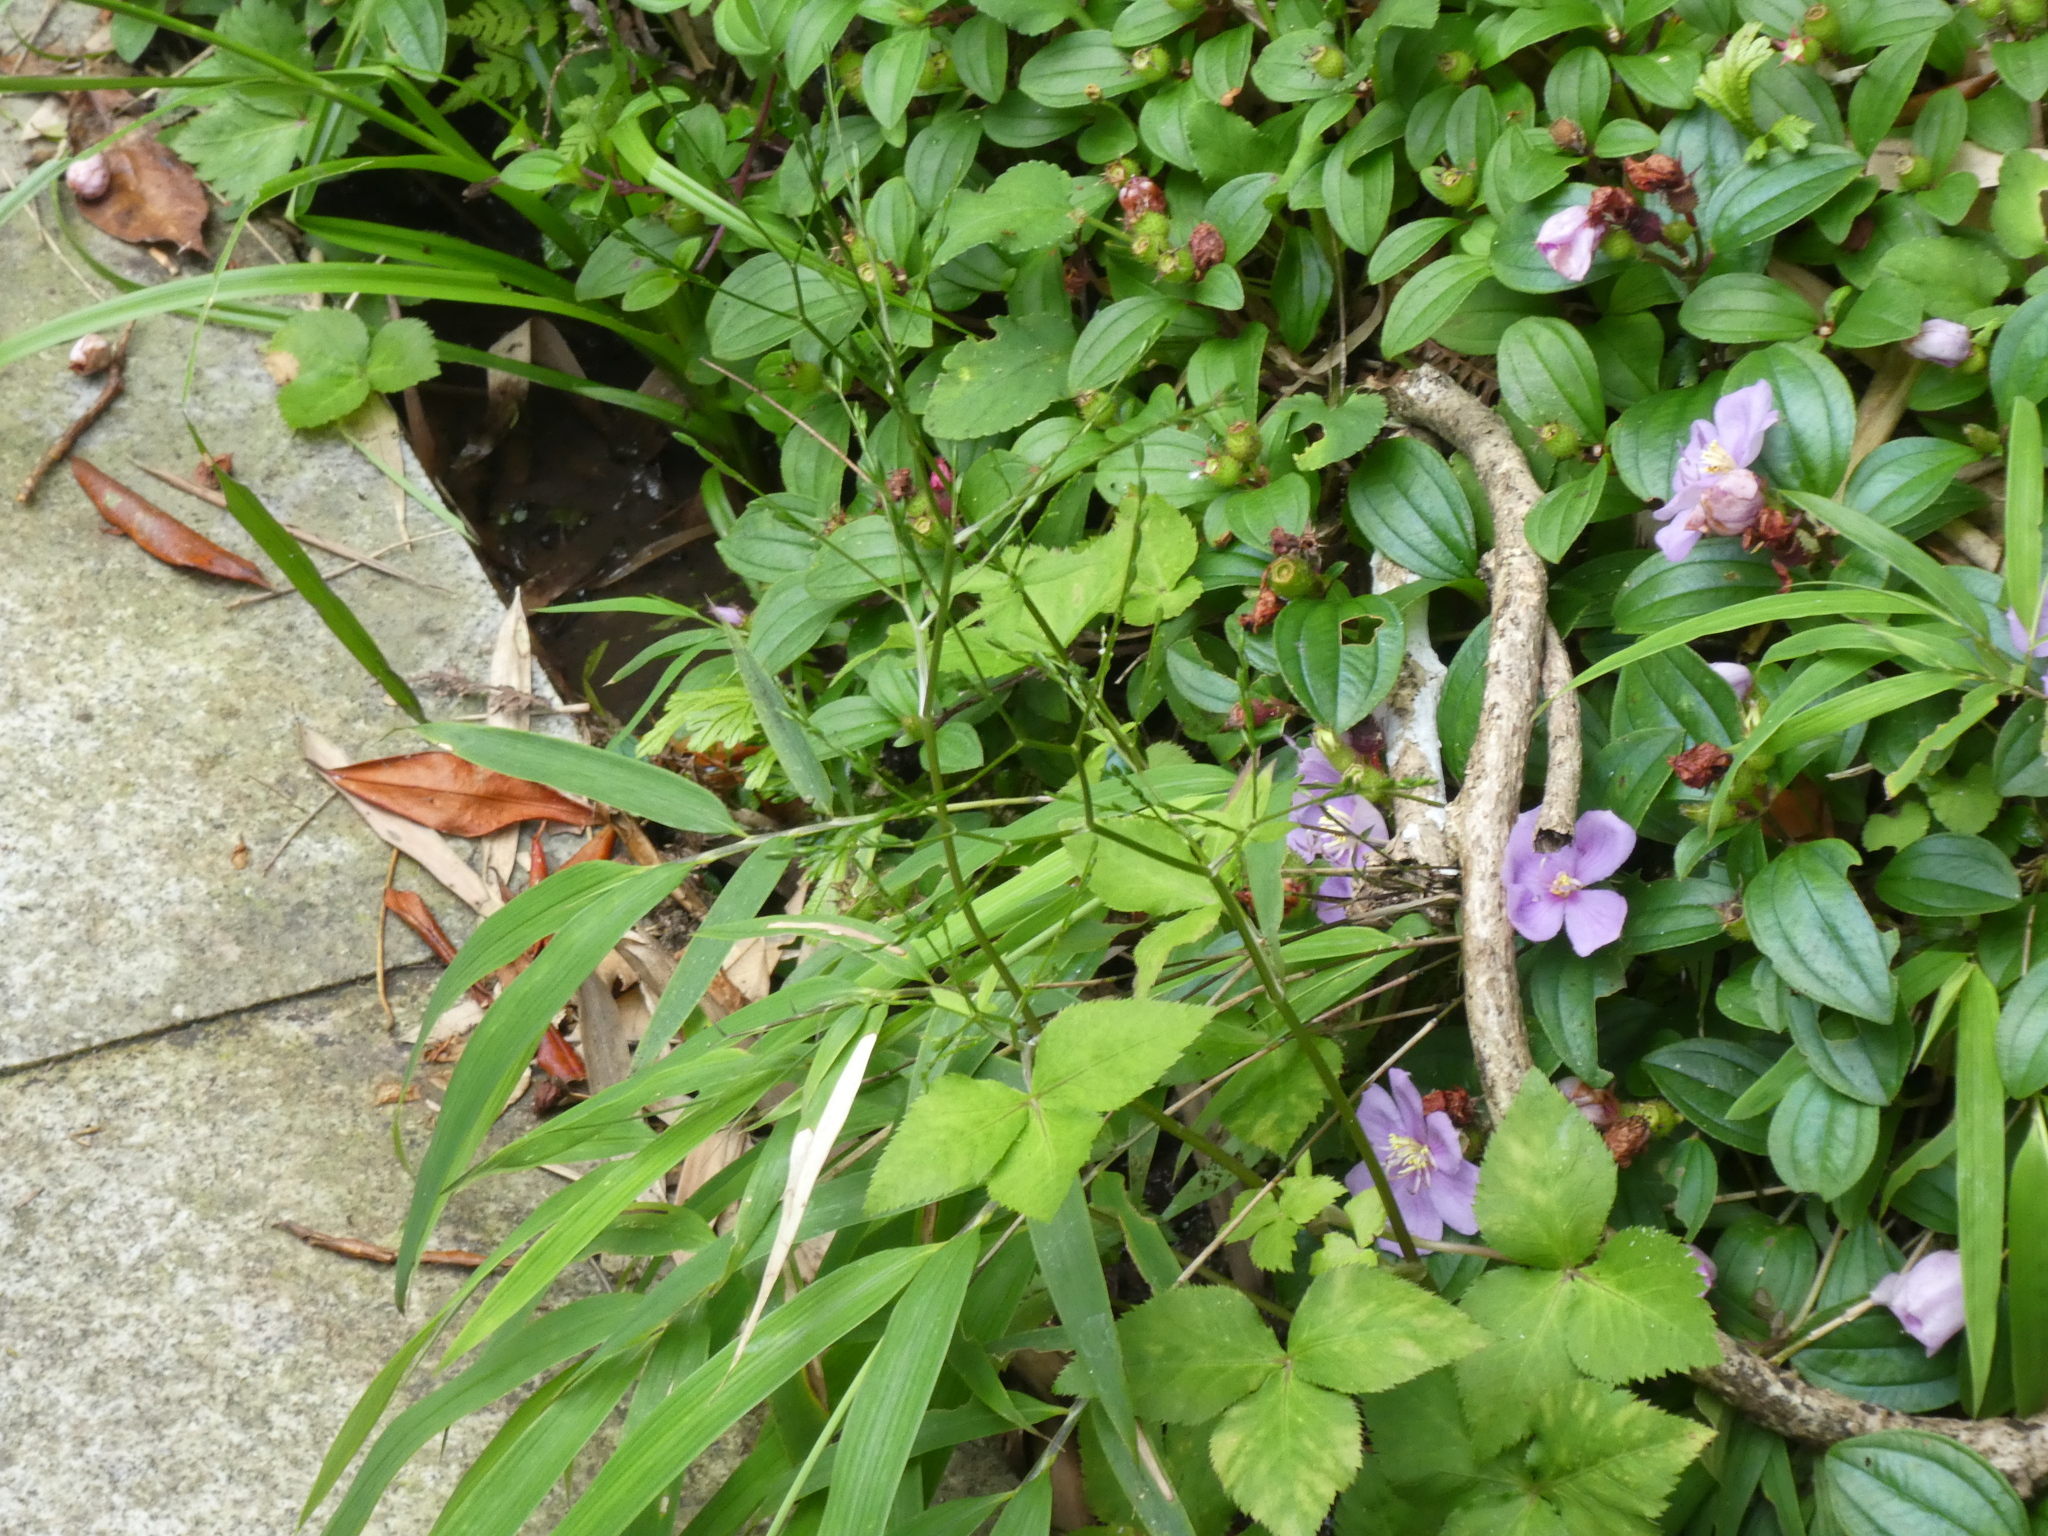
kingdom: Plantae
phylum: Tracheophyta
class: Magnoliopsida
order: Apiales
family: Apiaceae
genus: Cryptotaenia
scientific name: Cryptotaenia japonica
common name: Japanese cryptotaenia
